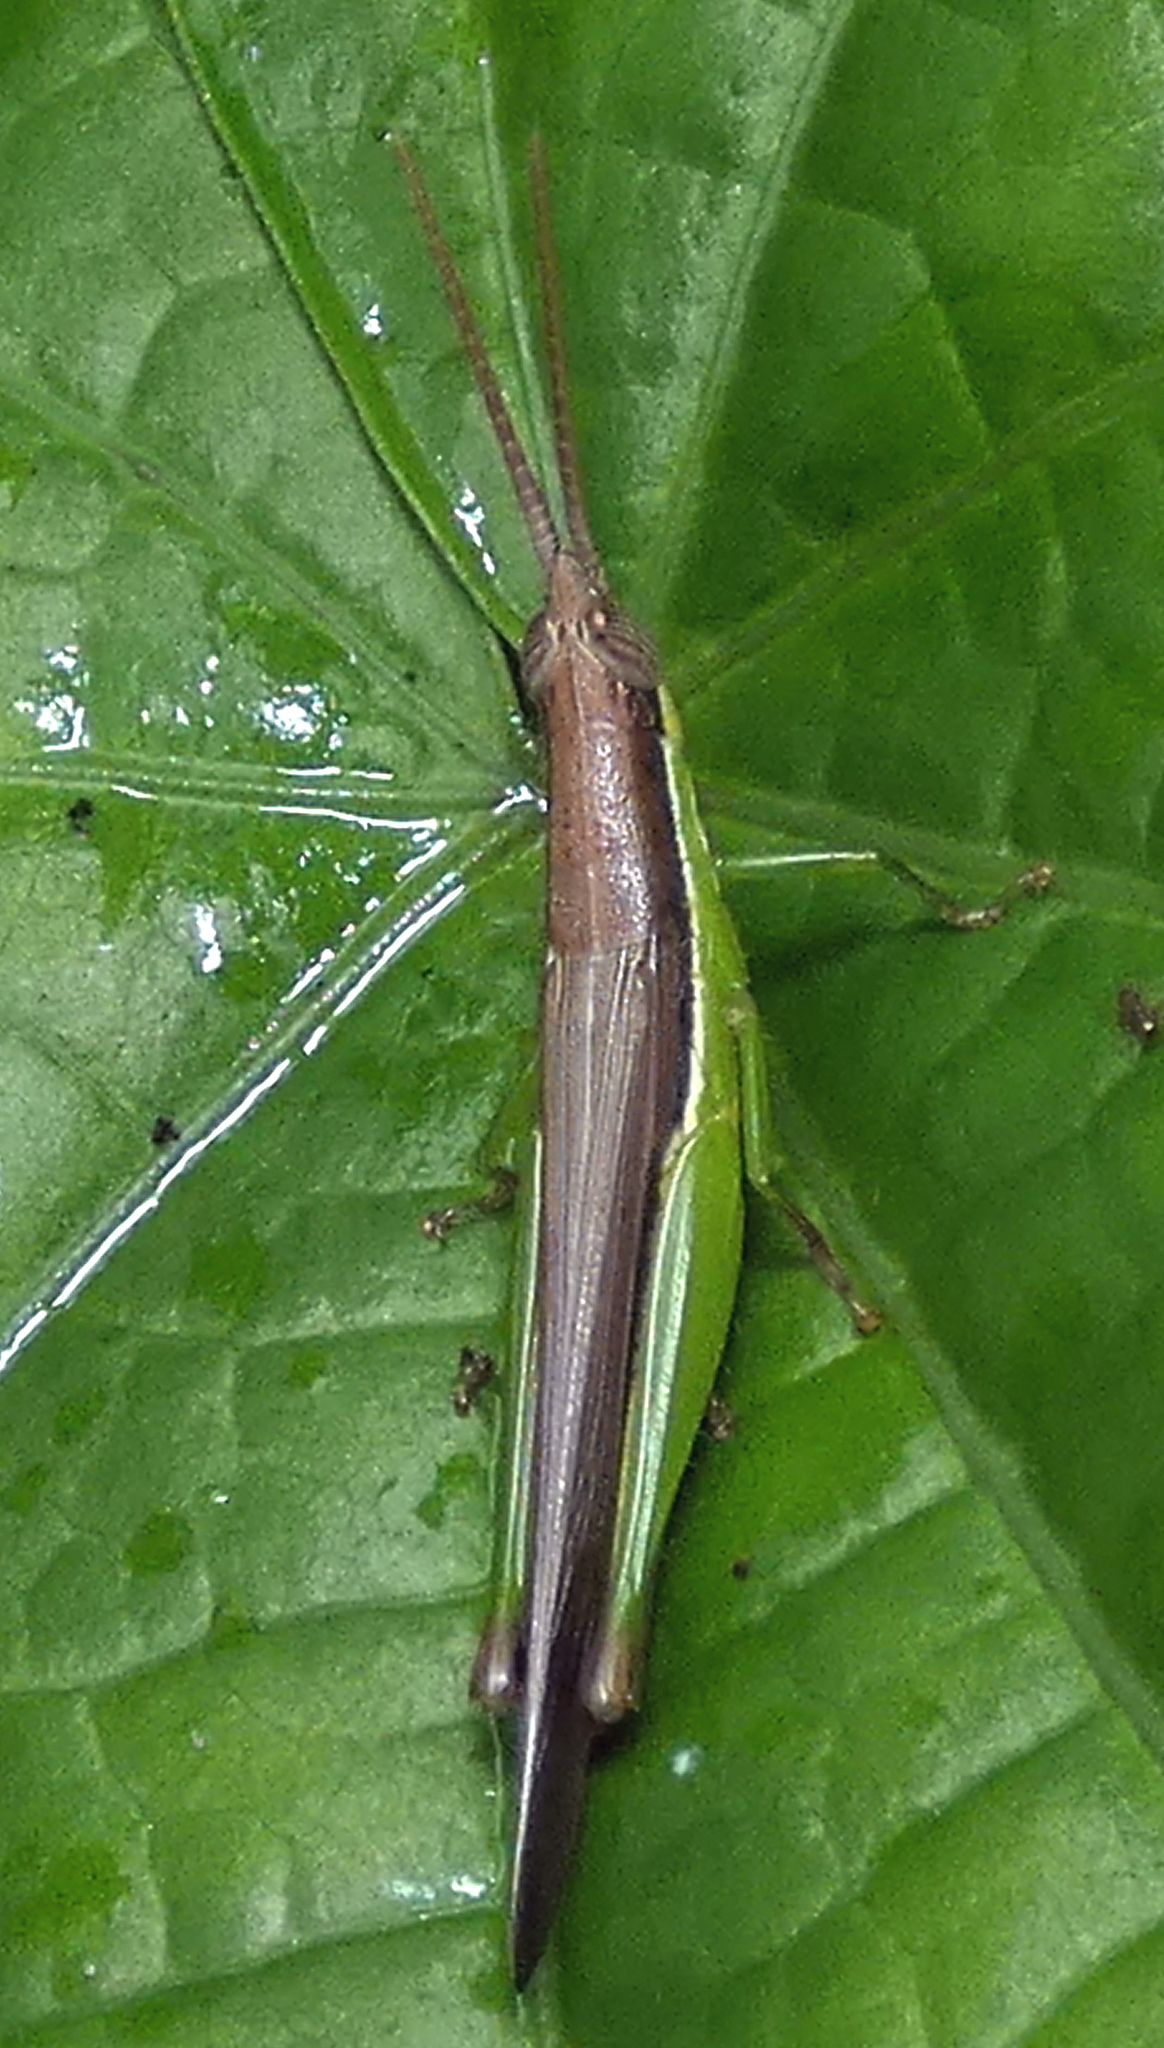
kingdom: Animalia
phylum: Arthropoda
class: Insecta
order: Orthoptera
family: Acrididae
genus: Stenopola
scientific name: Stenopola dorsalis
